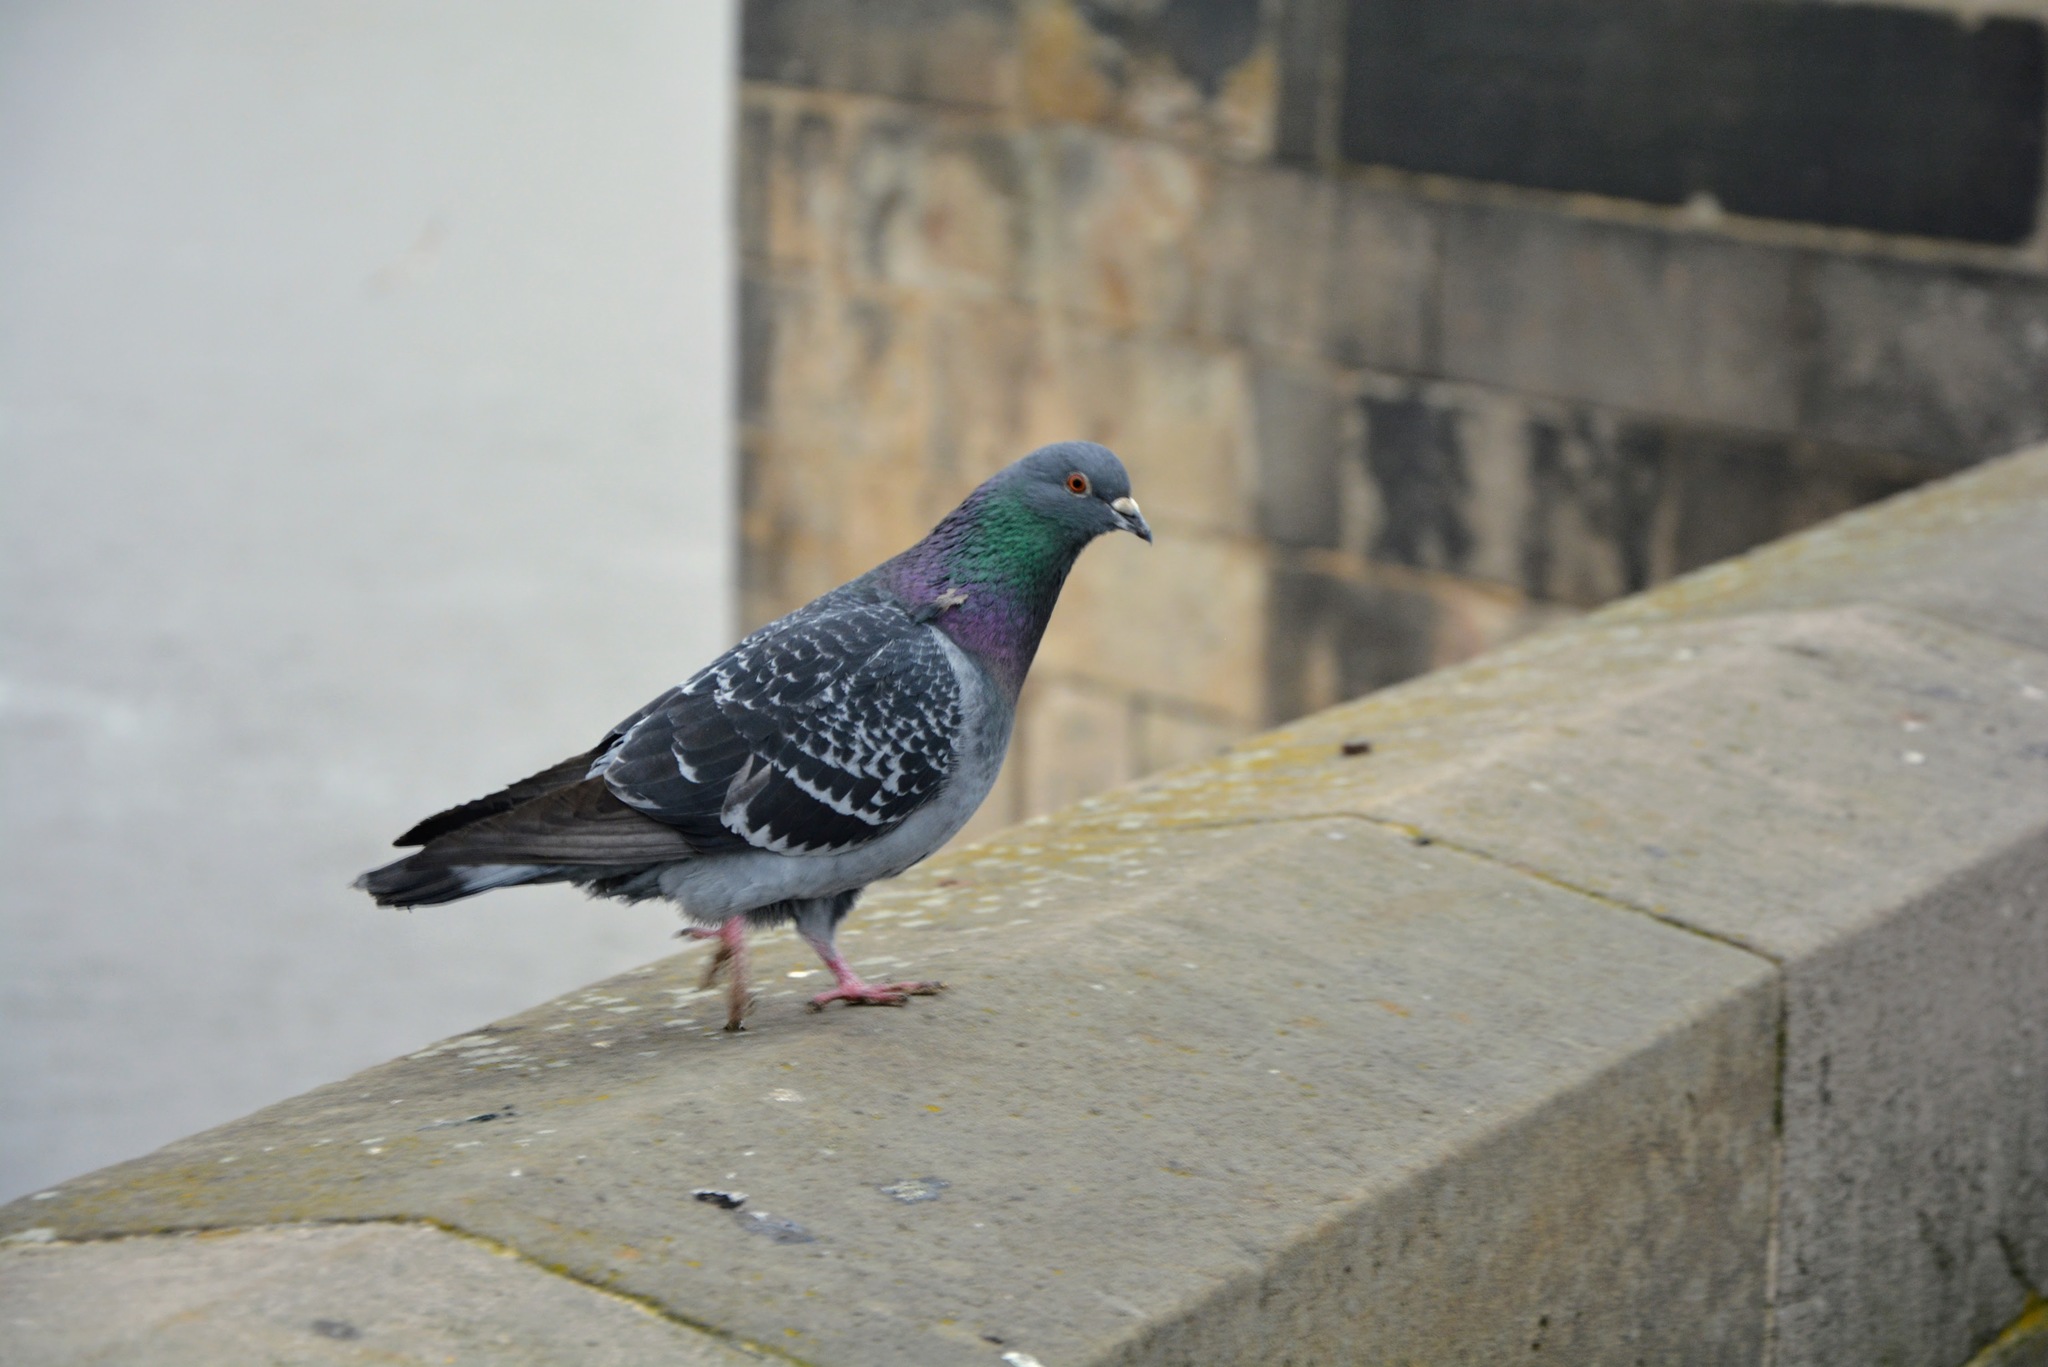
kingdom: Animalia
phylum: Chordata
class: Aves
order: Columbiformes
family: Columbidae
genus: Columba
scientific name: Columba livia
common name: Rock pigeon
